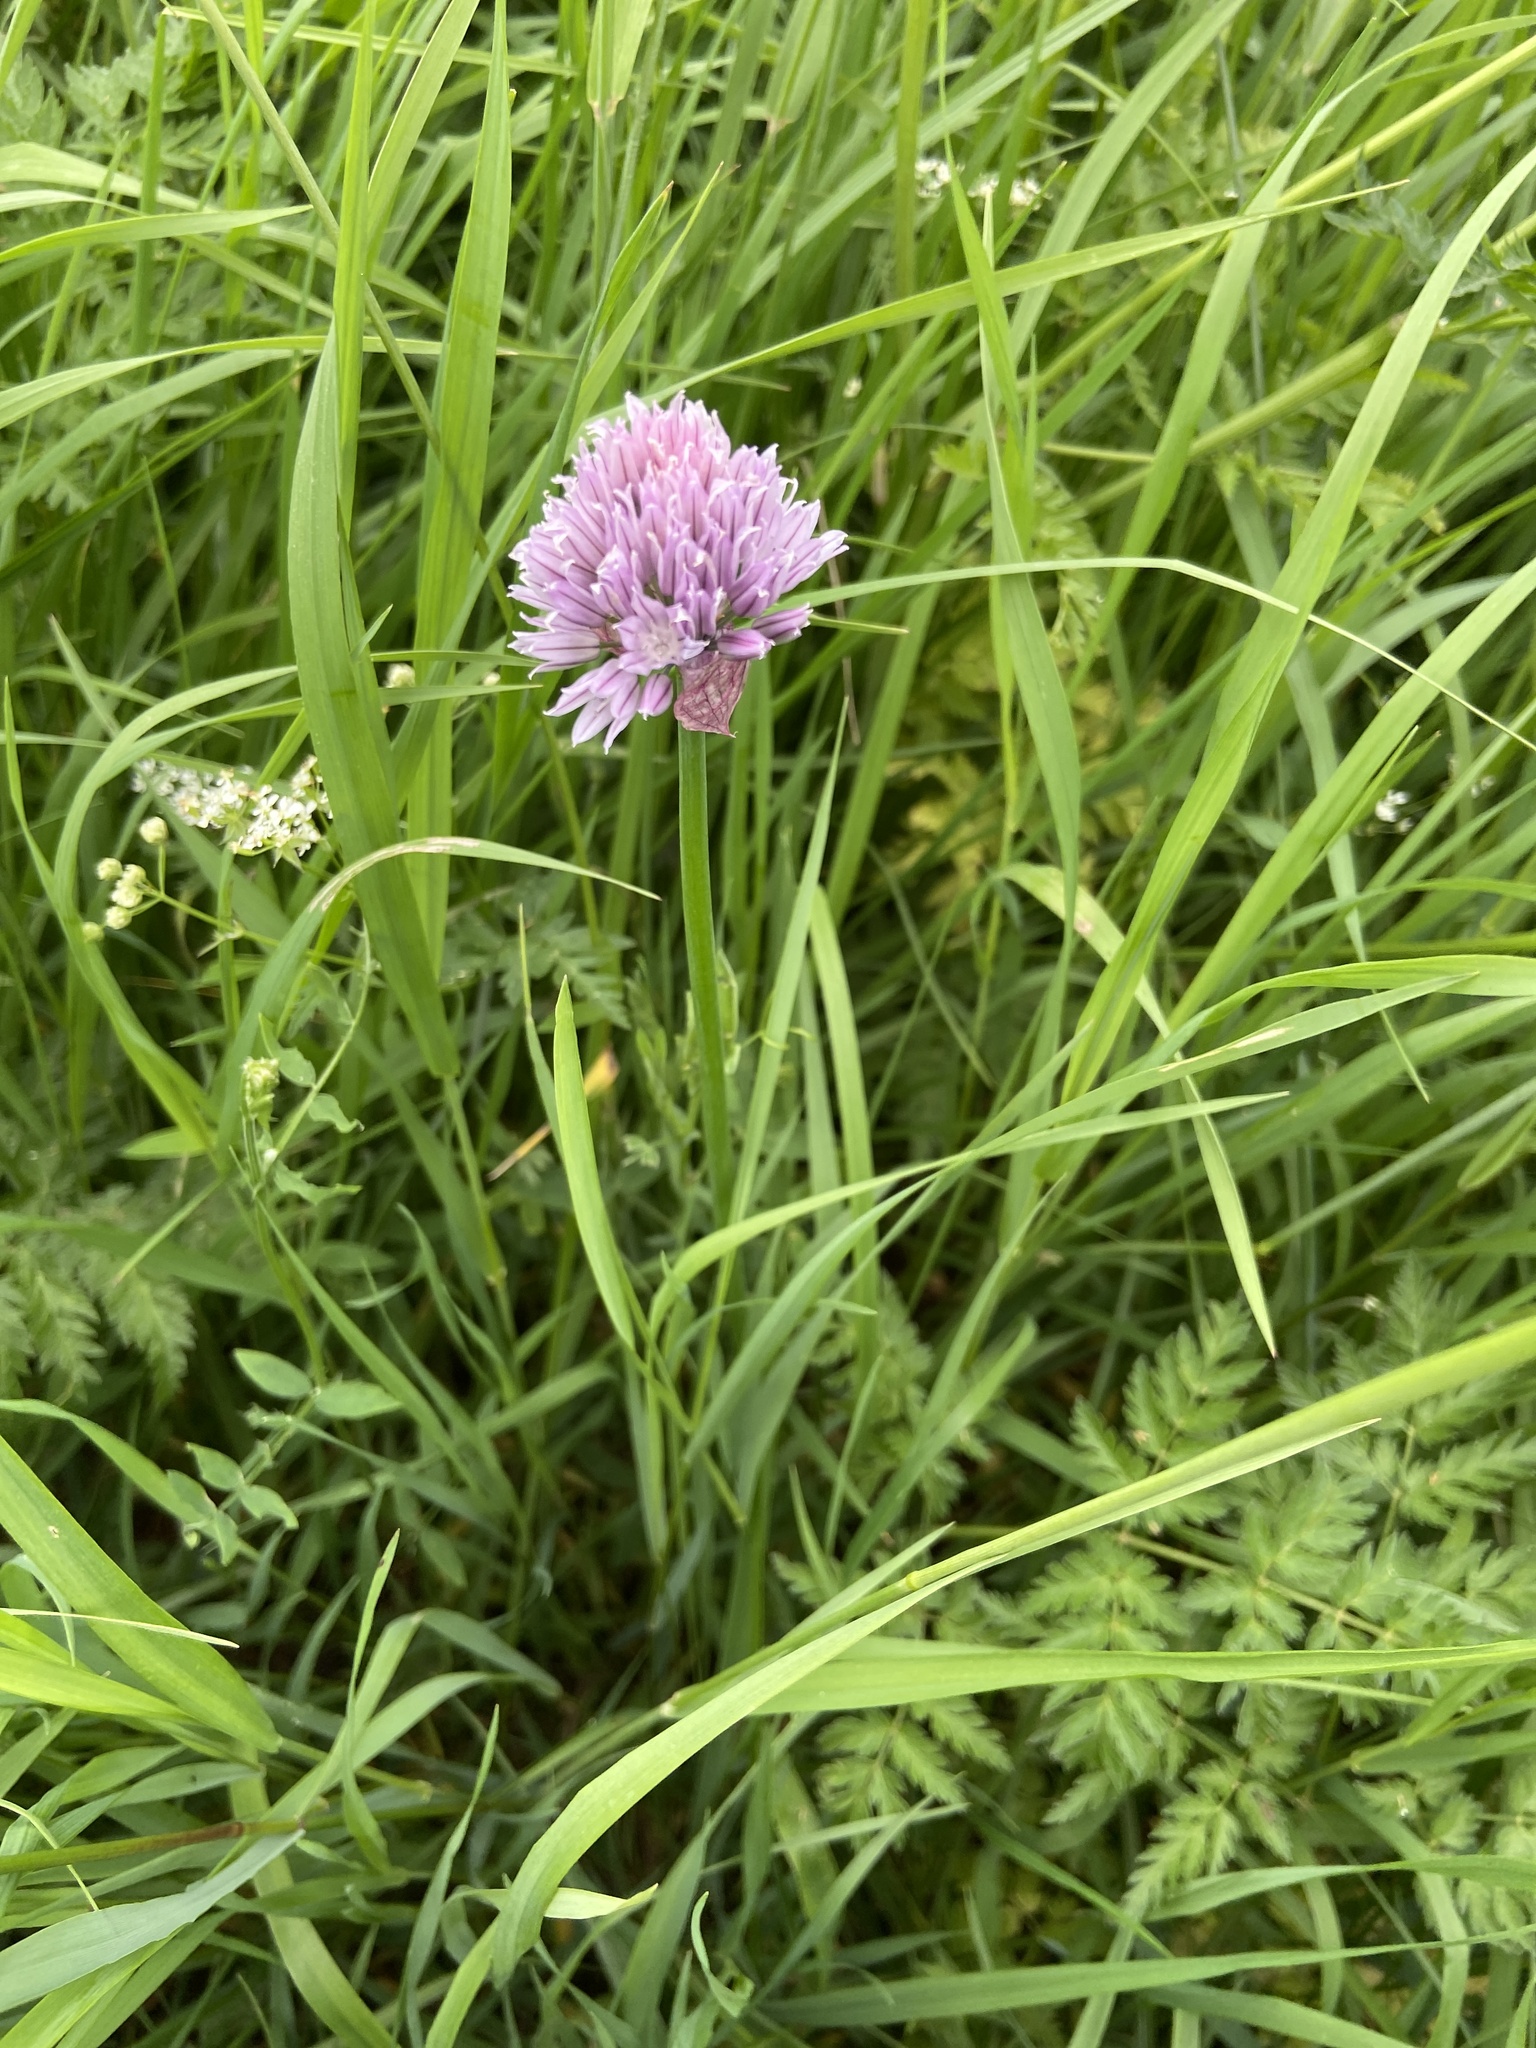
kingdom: Plantae
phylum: Tracheophyta
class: Liliopsida
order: Asparagales
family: Amaryllidaceae
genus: Allium
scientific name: Allium schoenoprasum
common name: Chives
